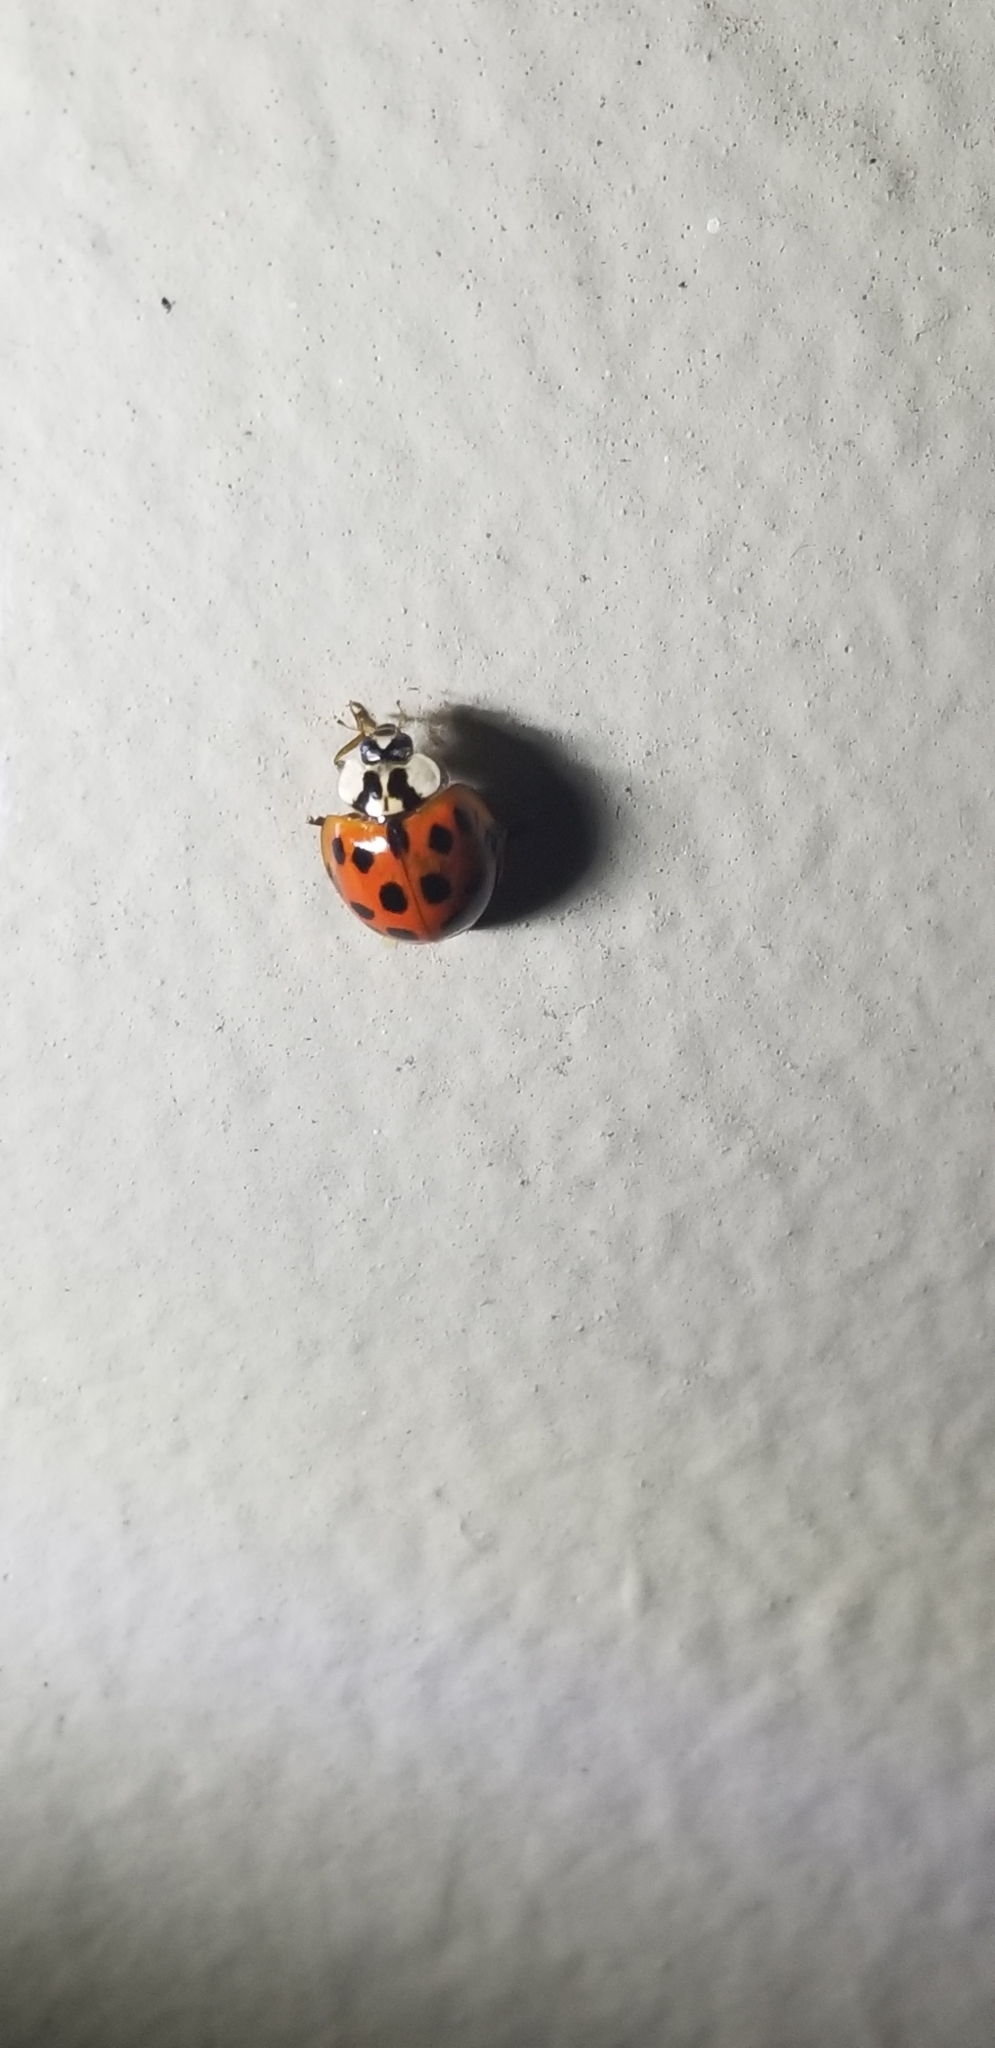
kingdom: Animalia
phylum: Arthropoda
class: Insecta
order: Coleoptera
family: Coccinellidae
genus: Harmonia
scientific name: Harmonia axyridis
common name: Harlequin ladybird
